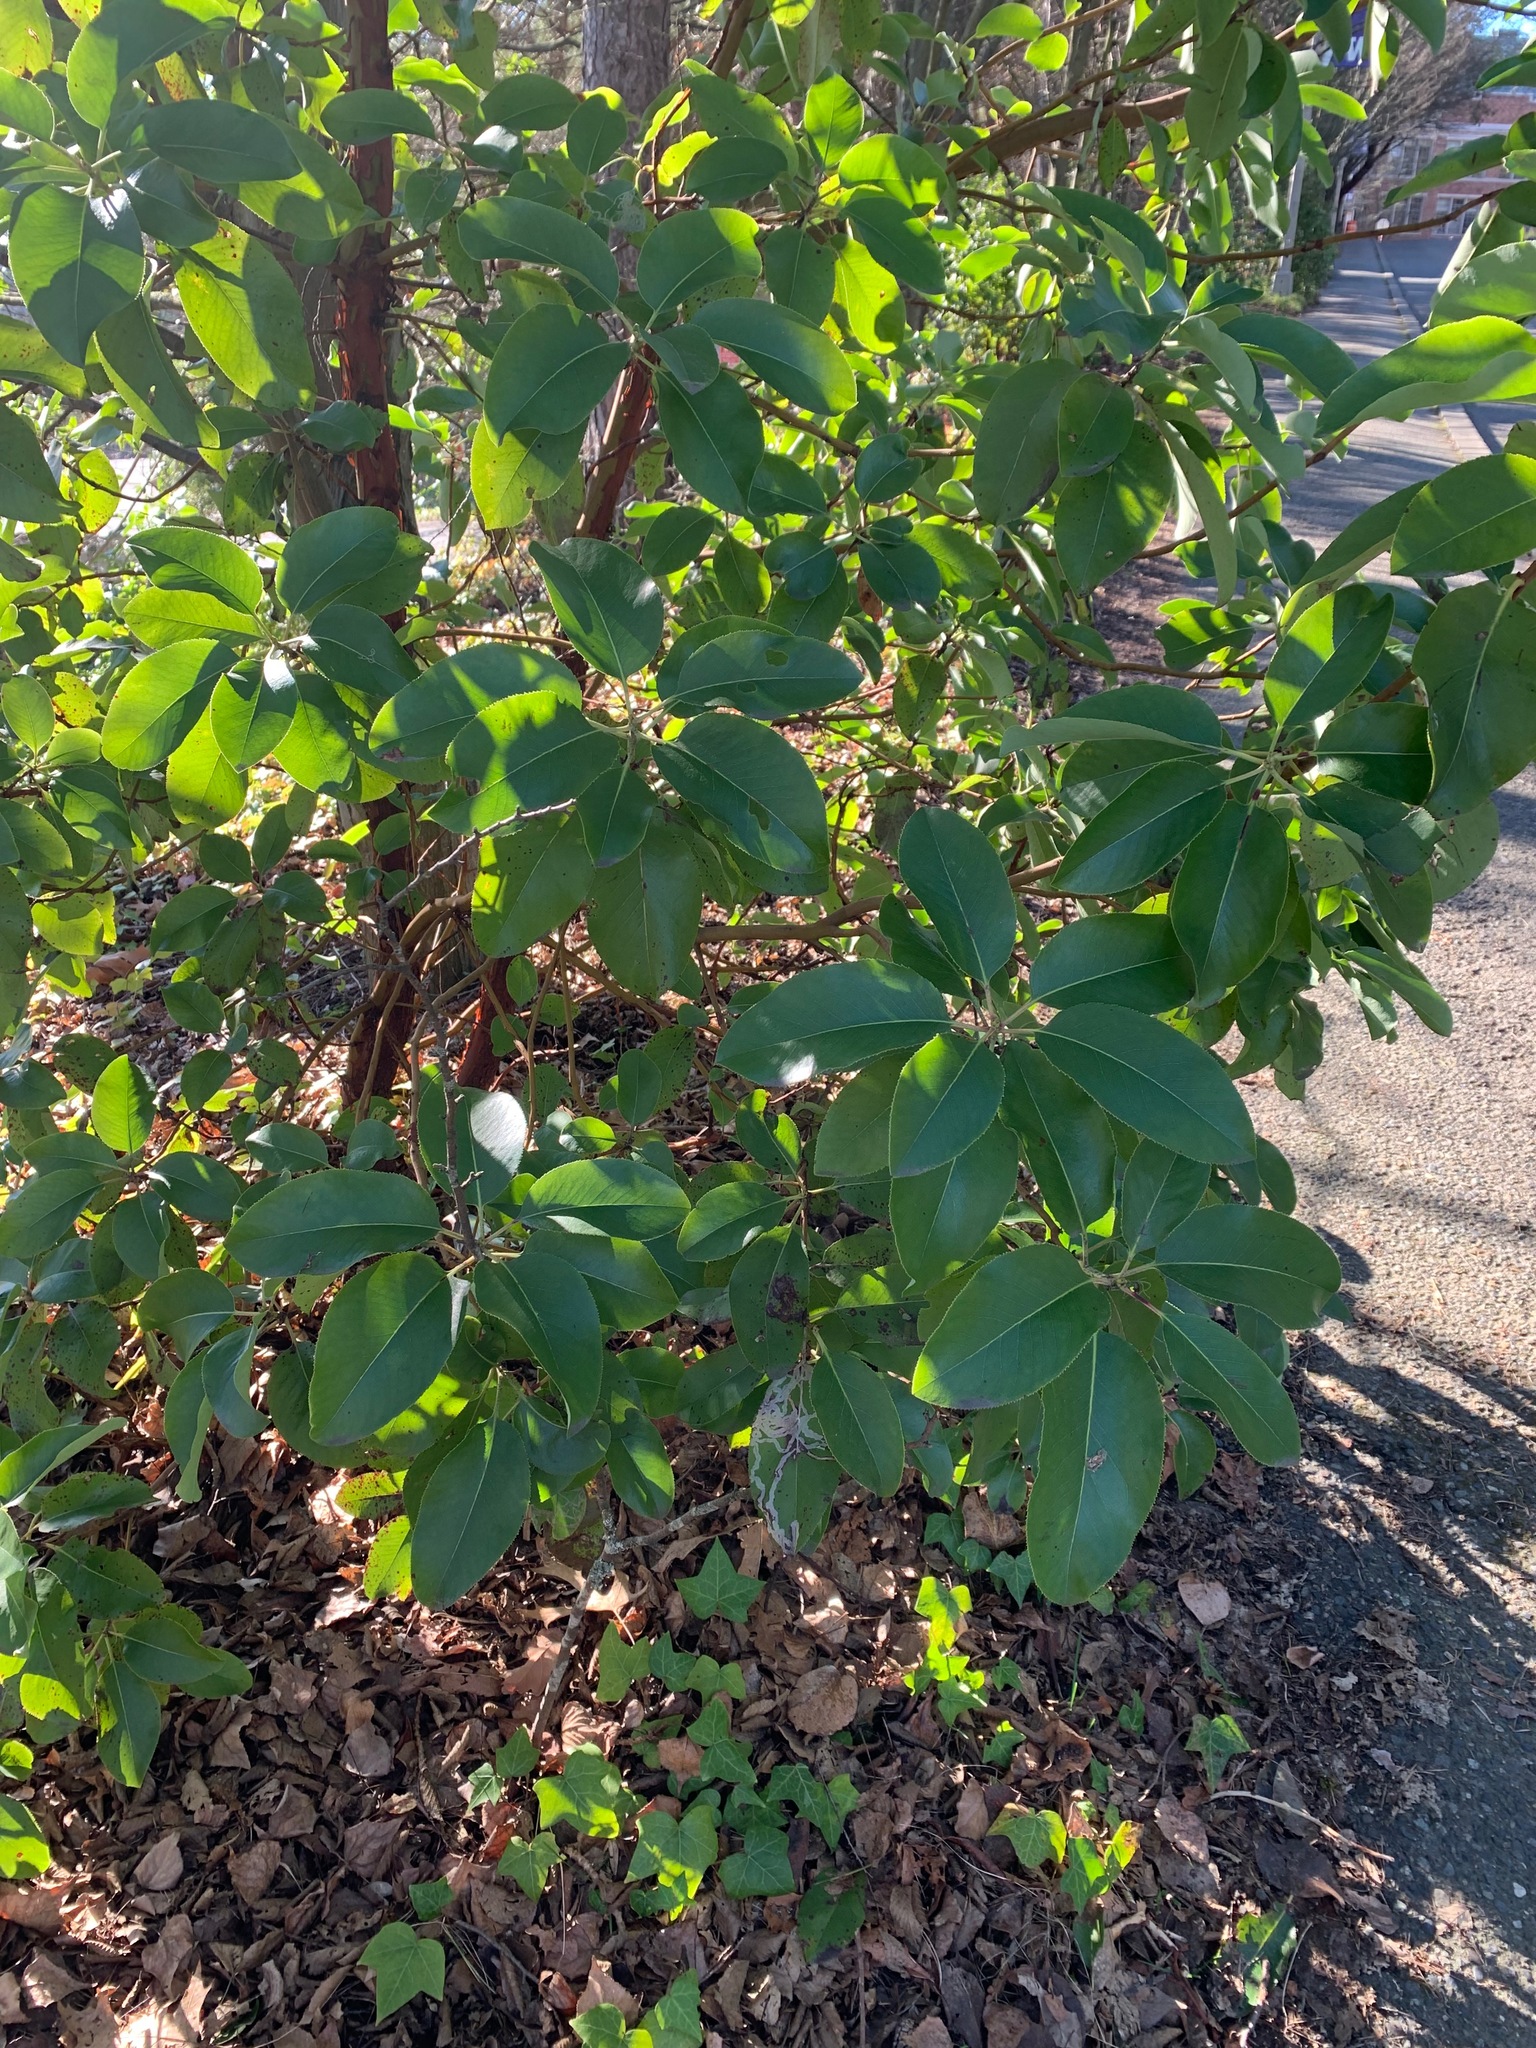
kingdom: Plantae
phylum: Tracheophyta
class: Magnoliopsida
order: Ericales
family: Ericaceae
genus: Arbutus
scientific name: Arbutus menziesii
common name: Pacific madrone
